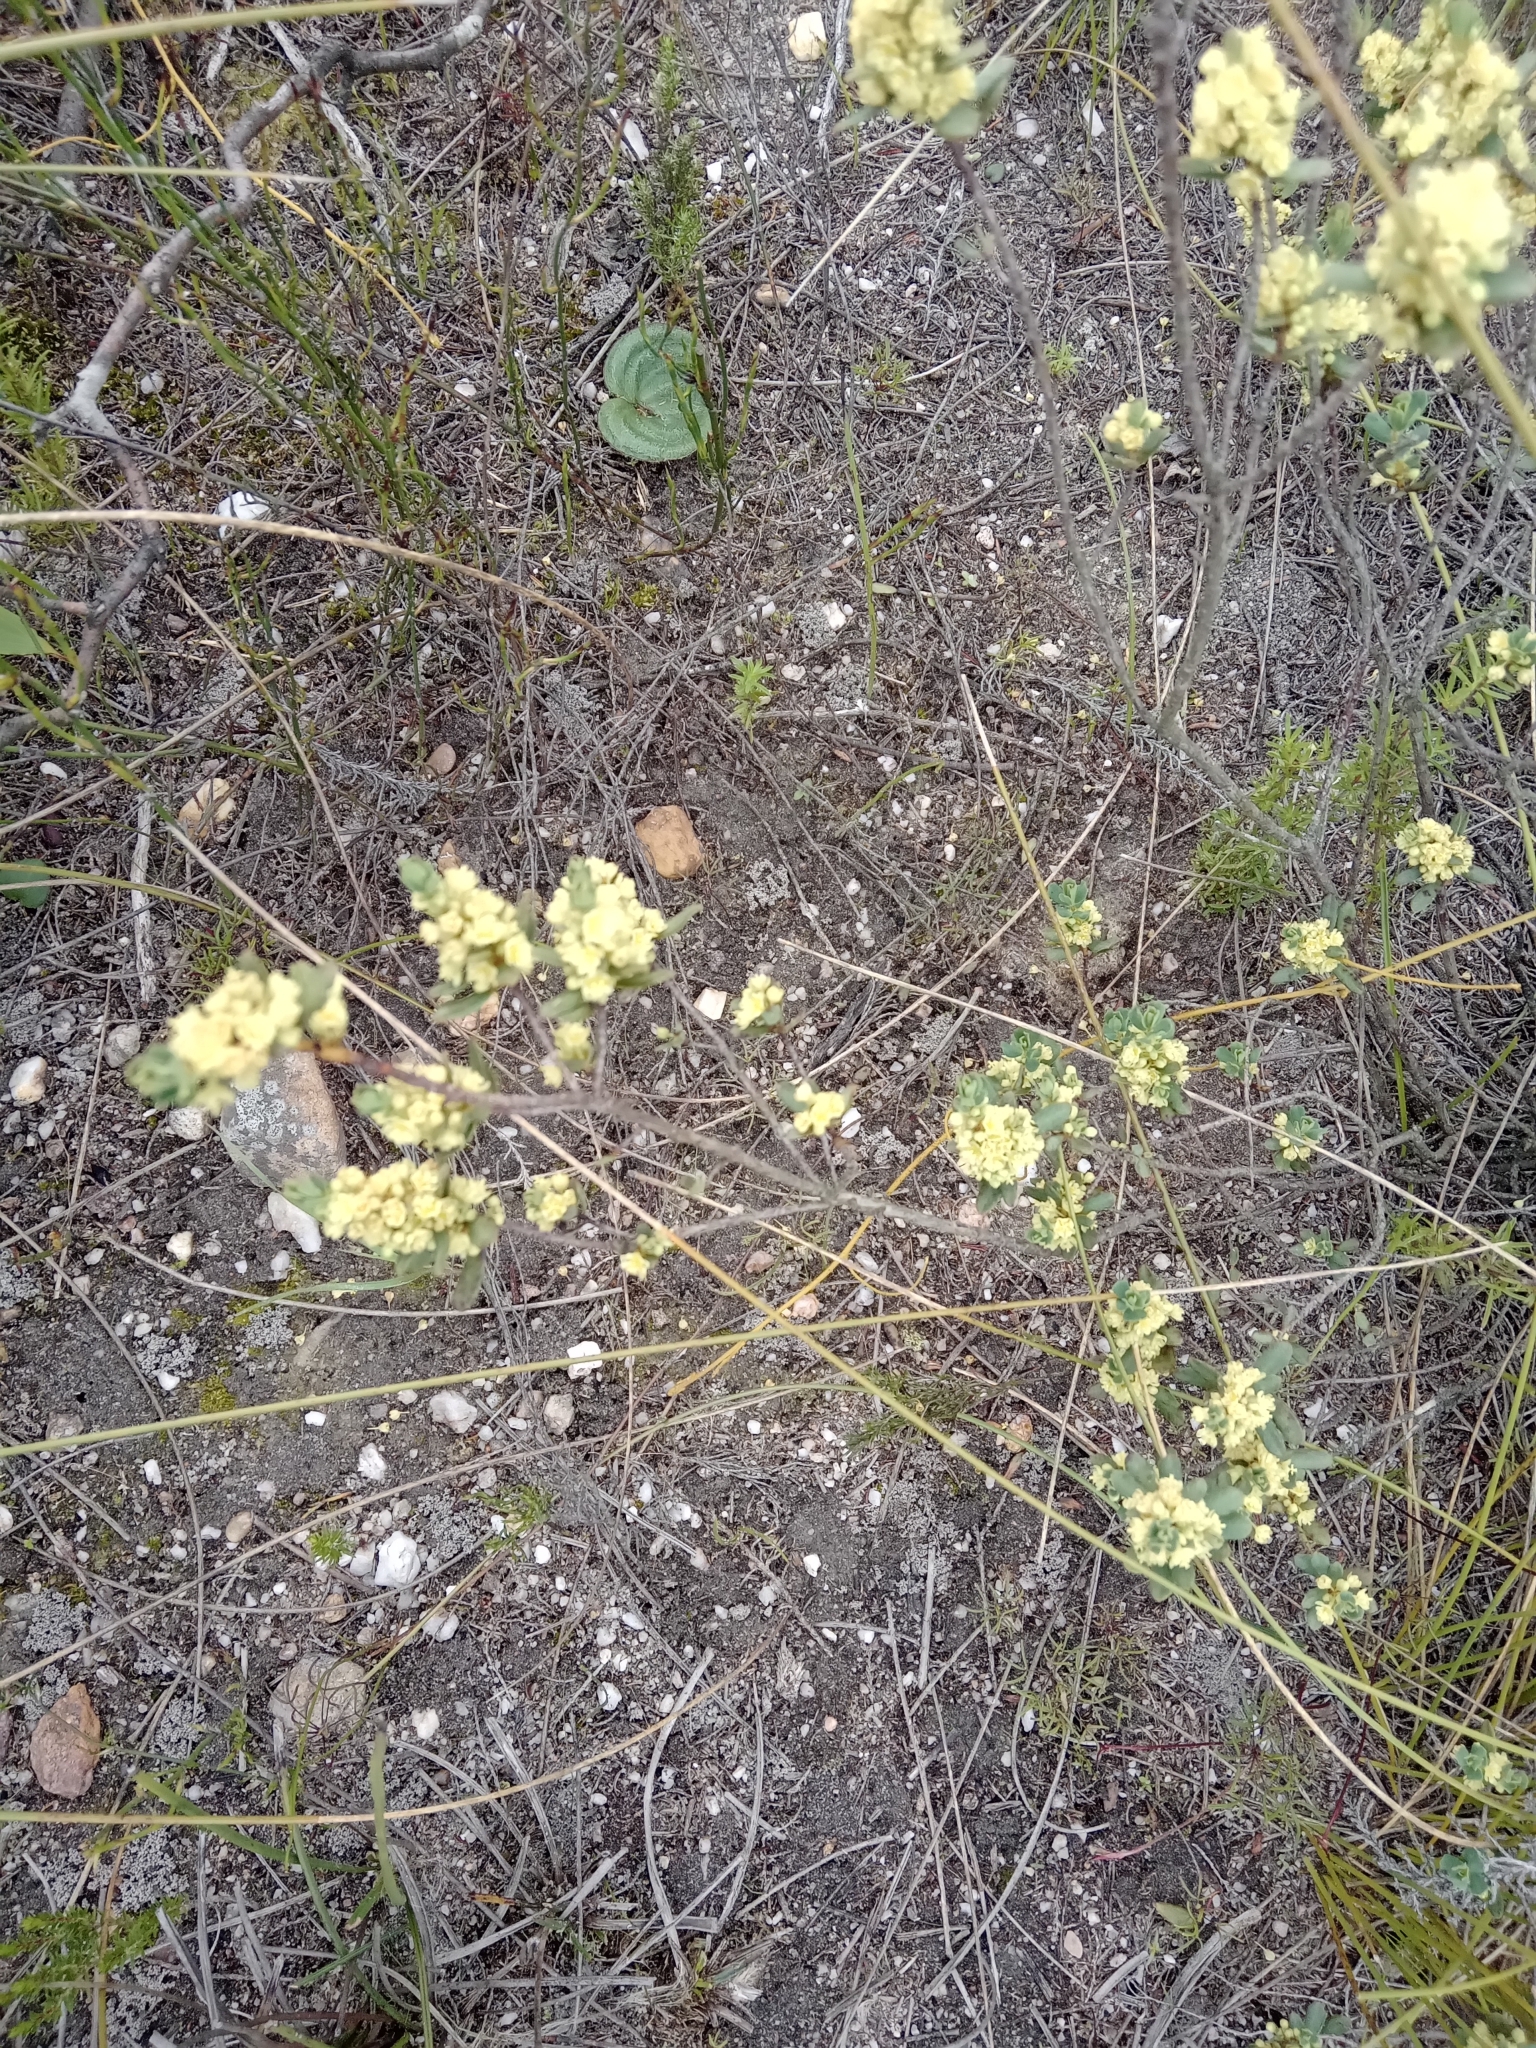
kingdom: Plantae
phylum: Tracheophyta
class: Magnoliopsida
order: Malpighiales
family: Peraceae
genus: Clutia
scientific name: Clutia alaternoides
